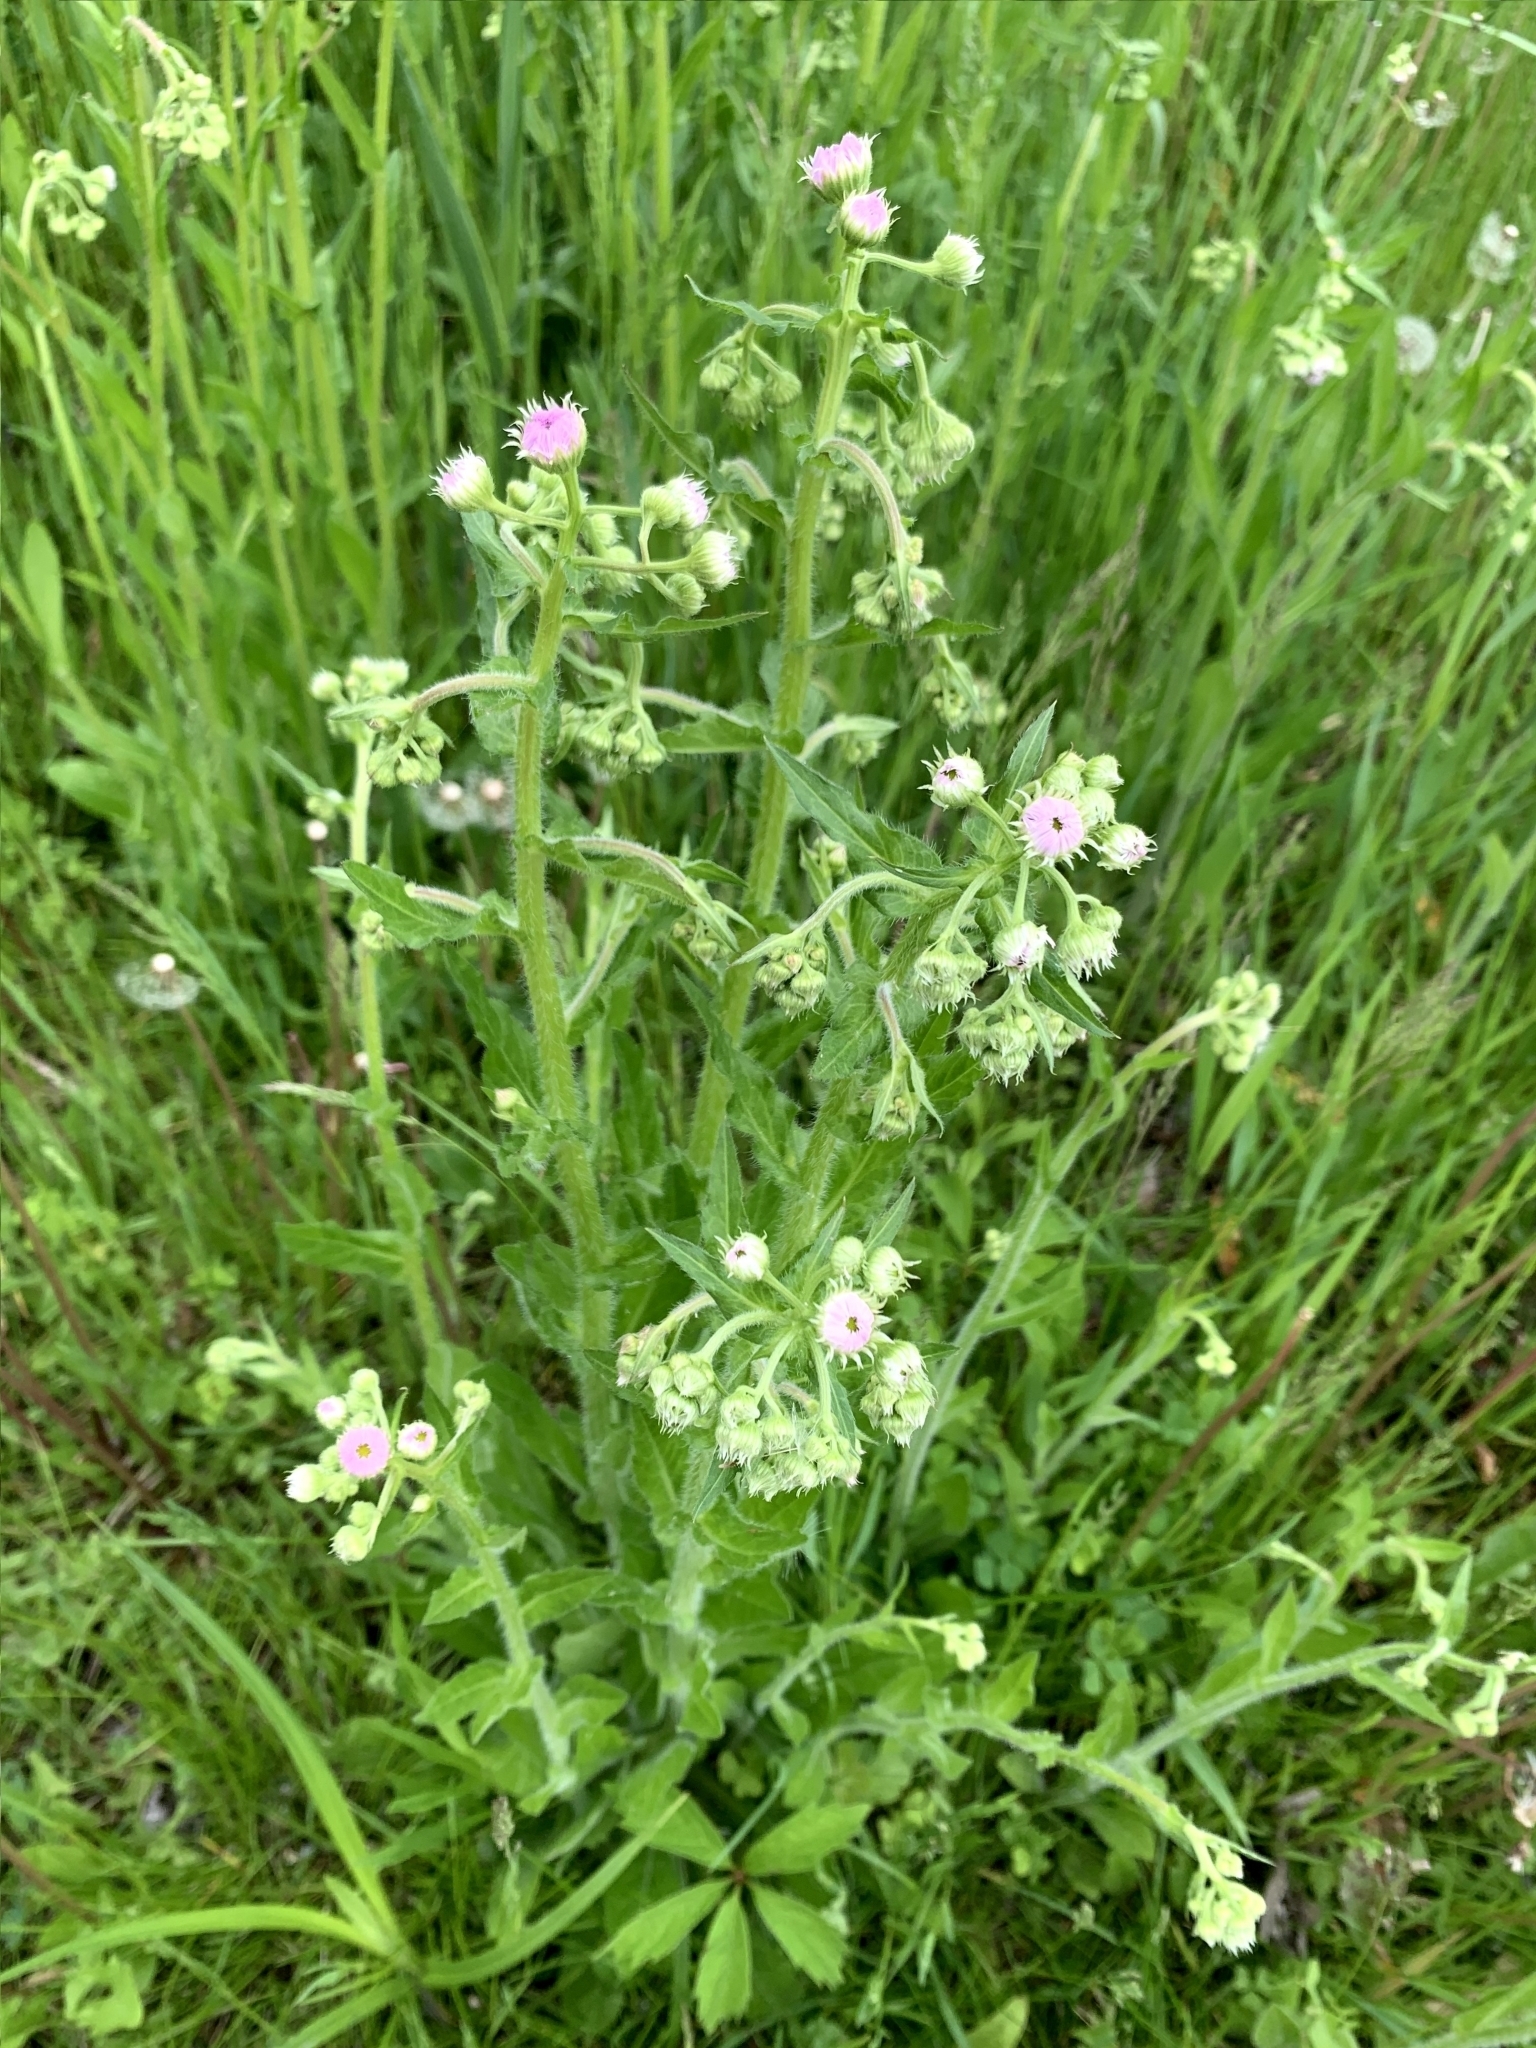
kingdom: Plantae
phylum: Tracheophyta
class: Magnoliopsida
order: Asterales
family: Asteraceae
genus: Erigeron
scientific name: Erigeron philadelphicus
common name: Robin's-plantain
